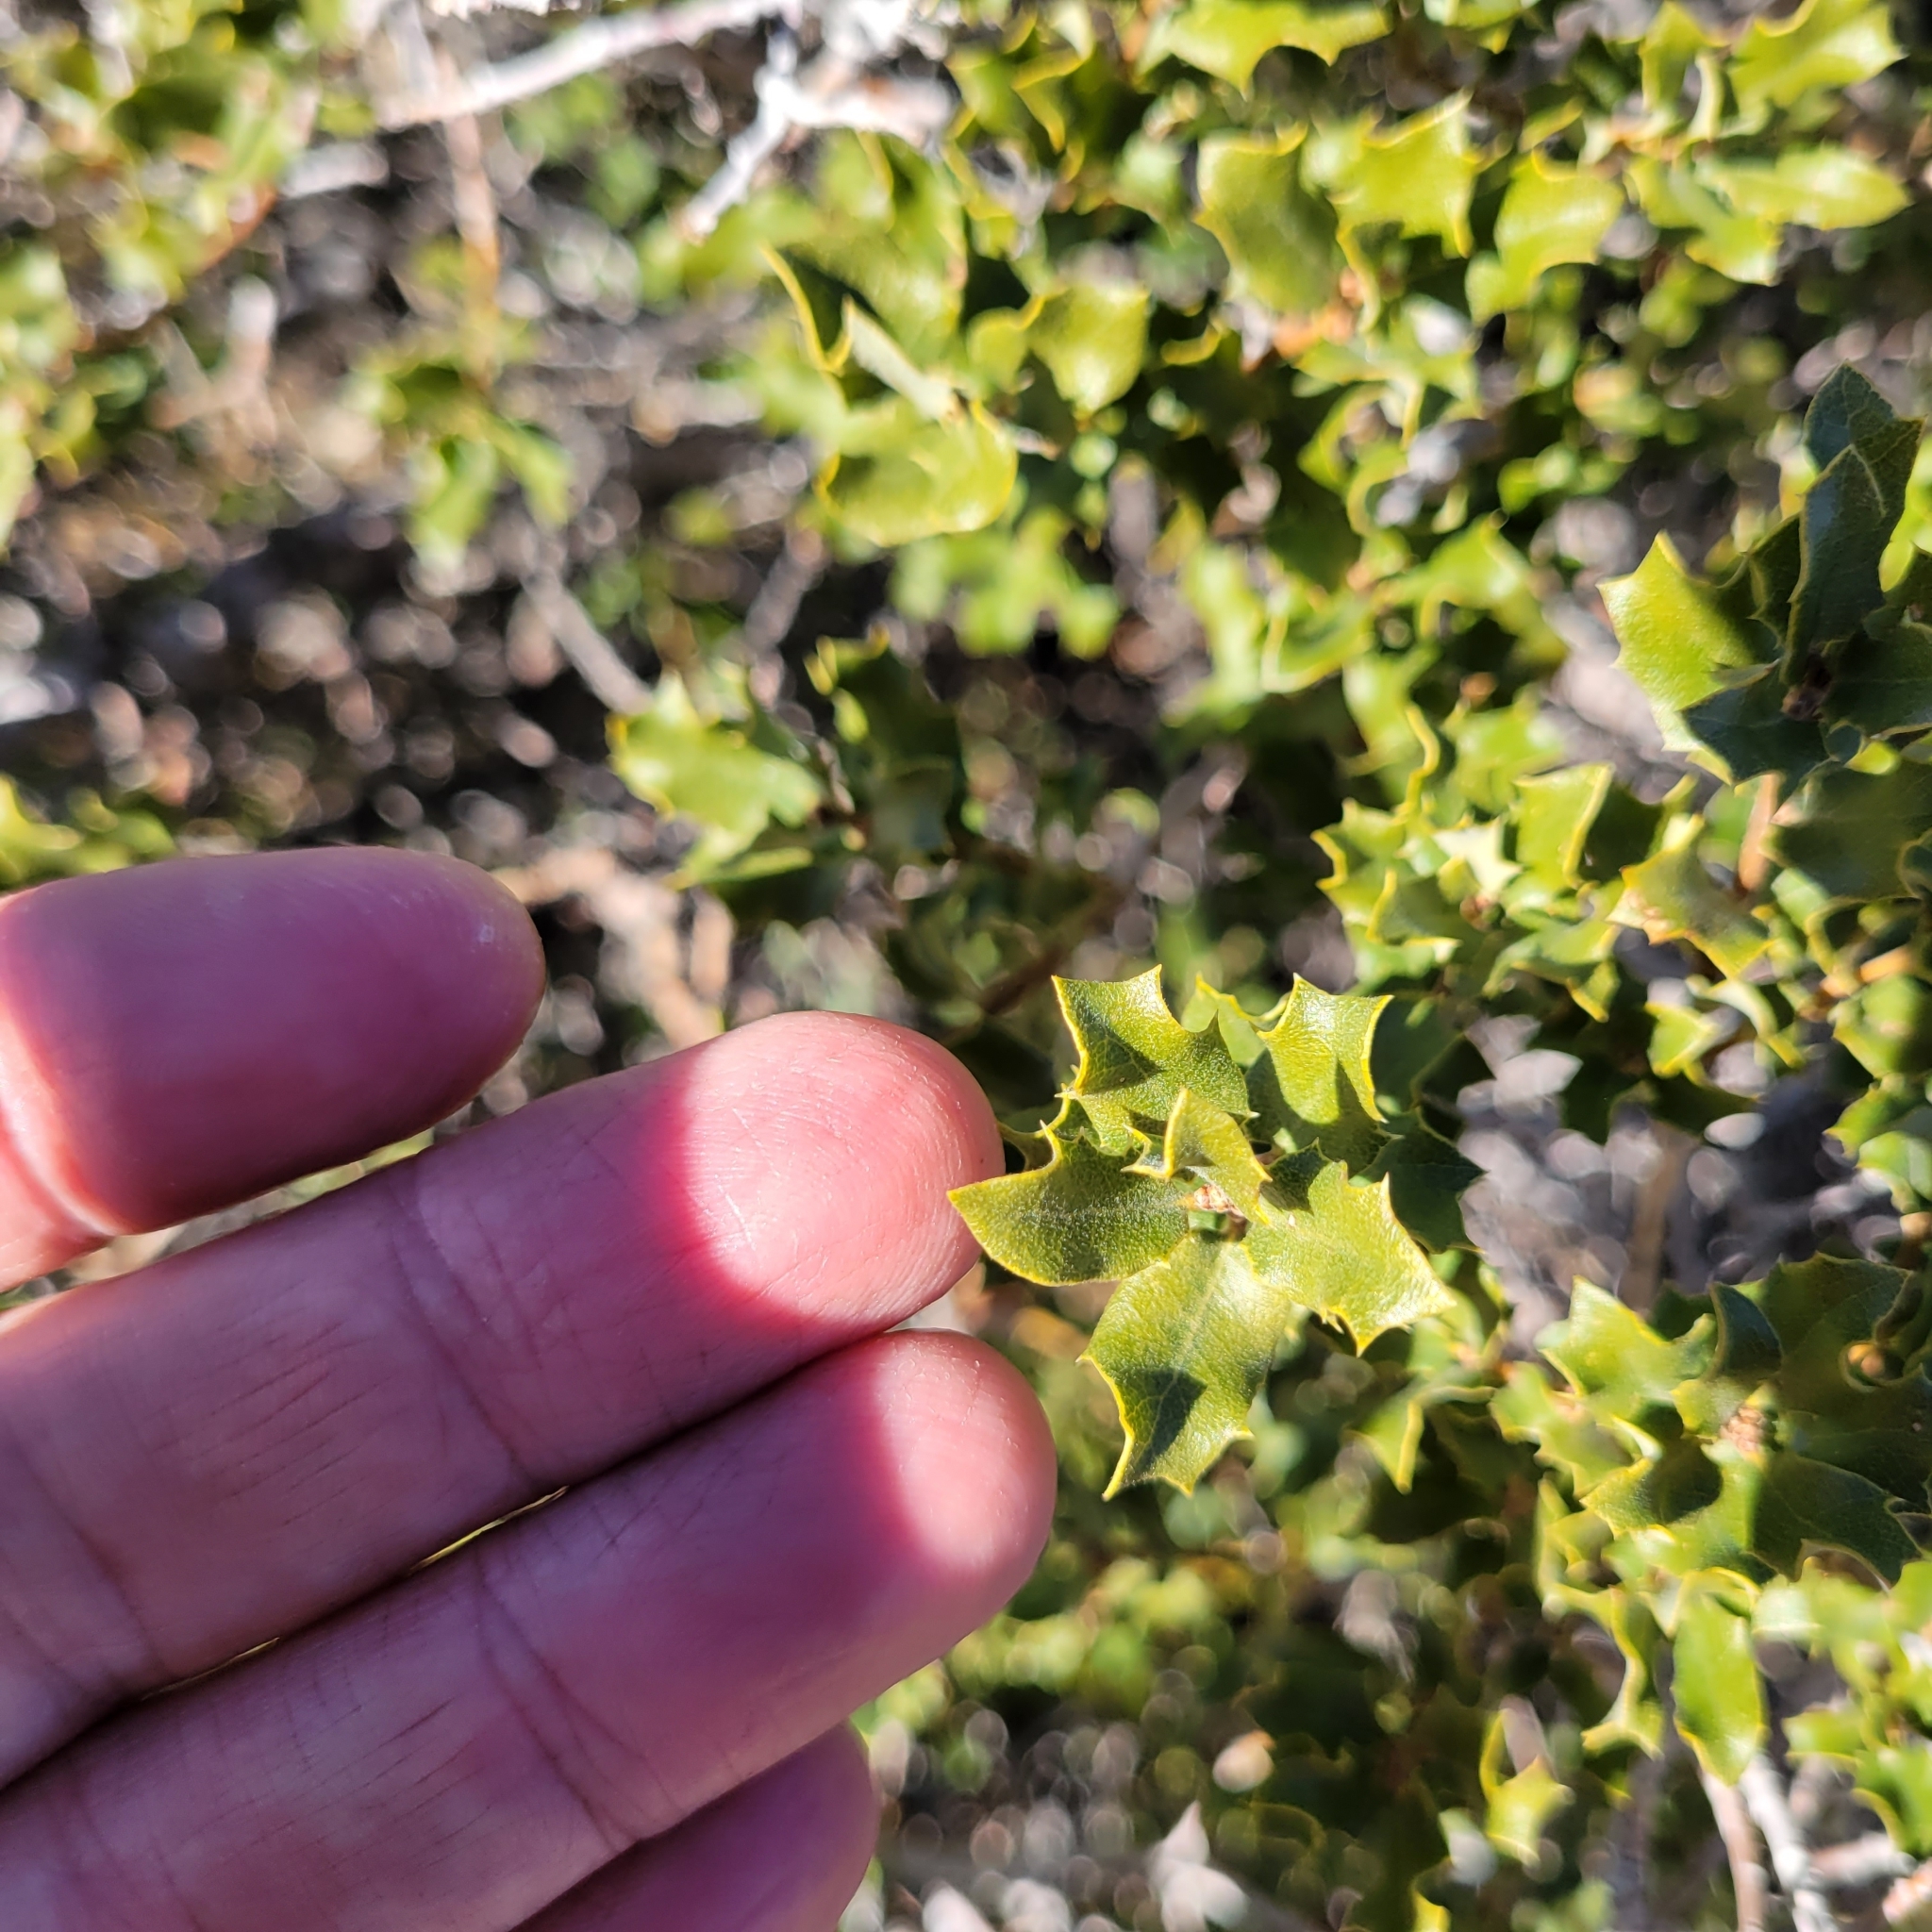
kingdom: Plantae
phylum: Tracheophyta
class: Magnoliopsida
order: Fagales
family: Fagaceae
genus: Quercus
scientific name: Quercus cornelius-mulleri
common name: Muller oak
